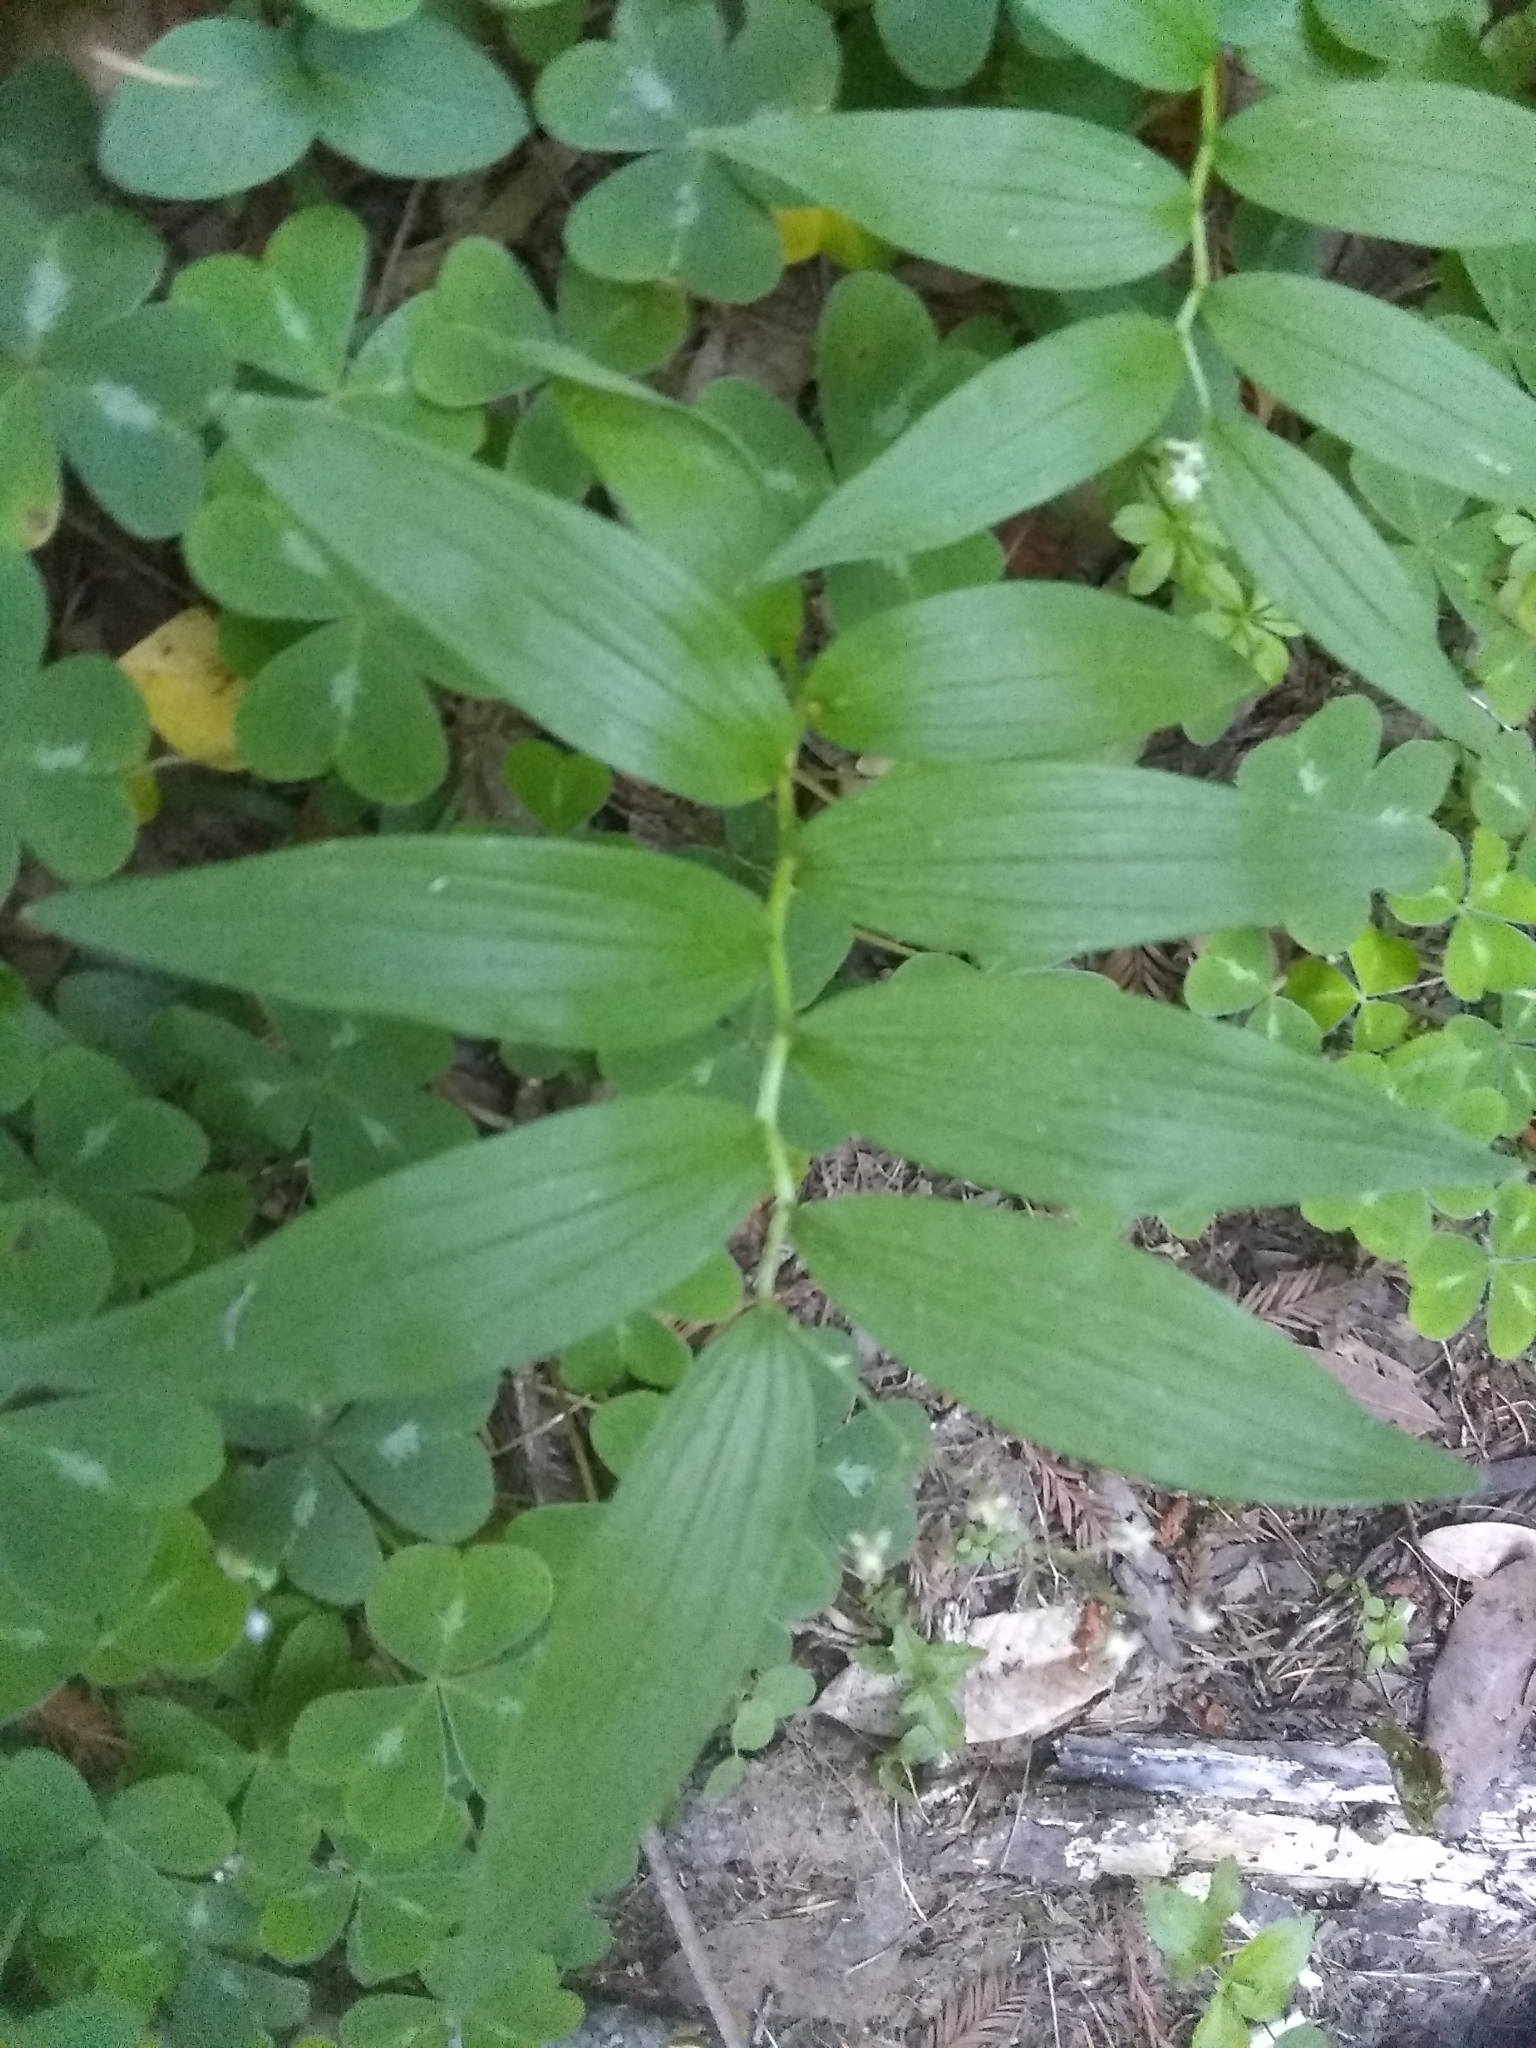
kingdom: Plantae
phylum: Tracheophyta
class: Liliopsida
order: Asparagales
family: Asparagaceae
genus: Maianthemum
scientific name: Maianthemum stellatum
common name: Little false solomon's seal
